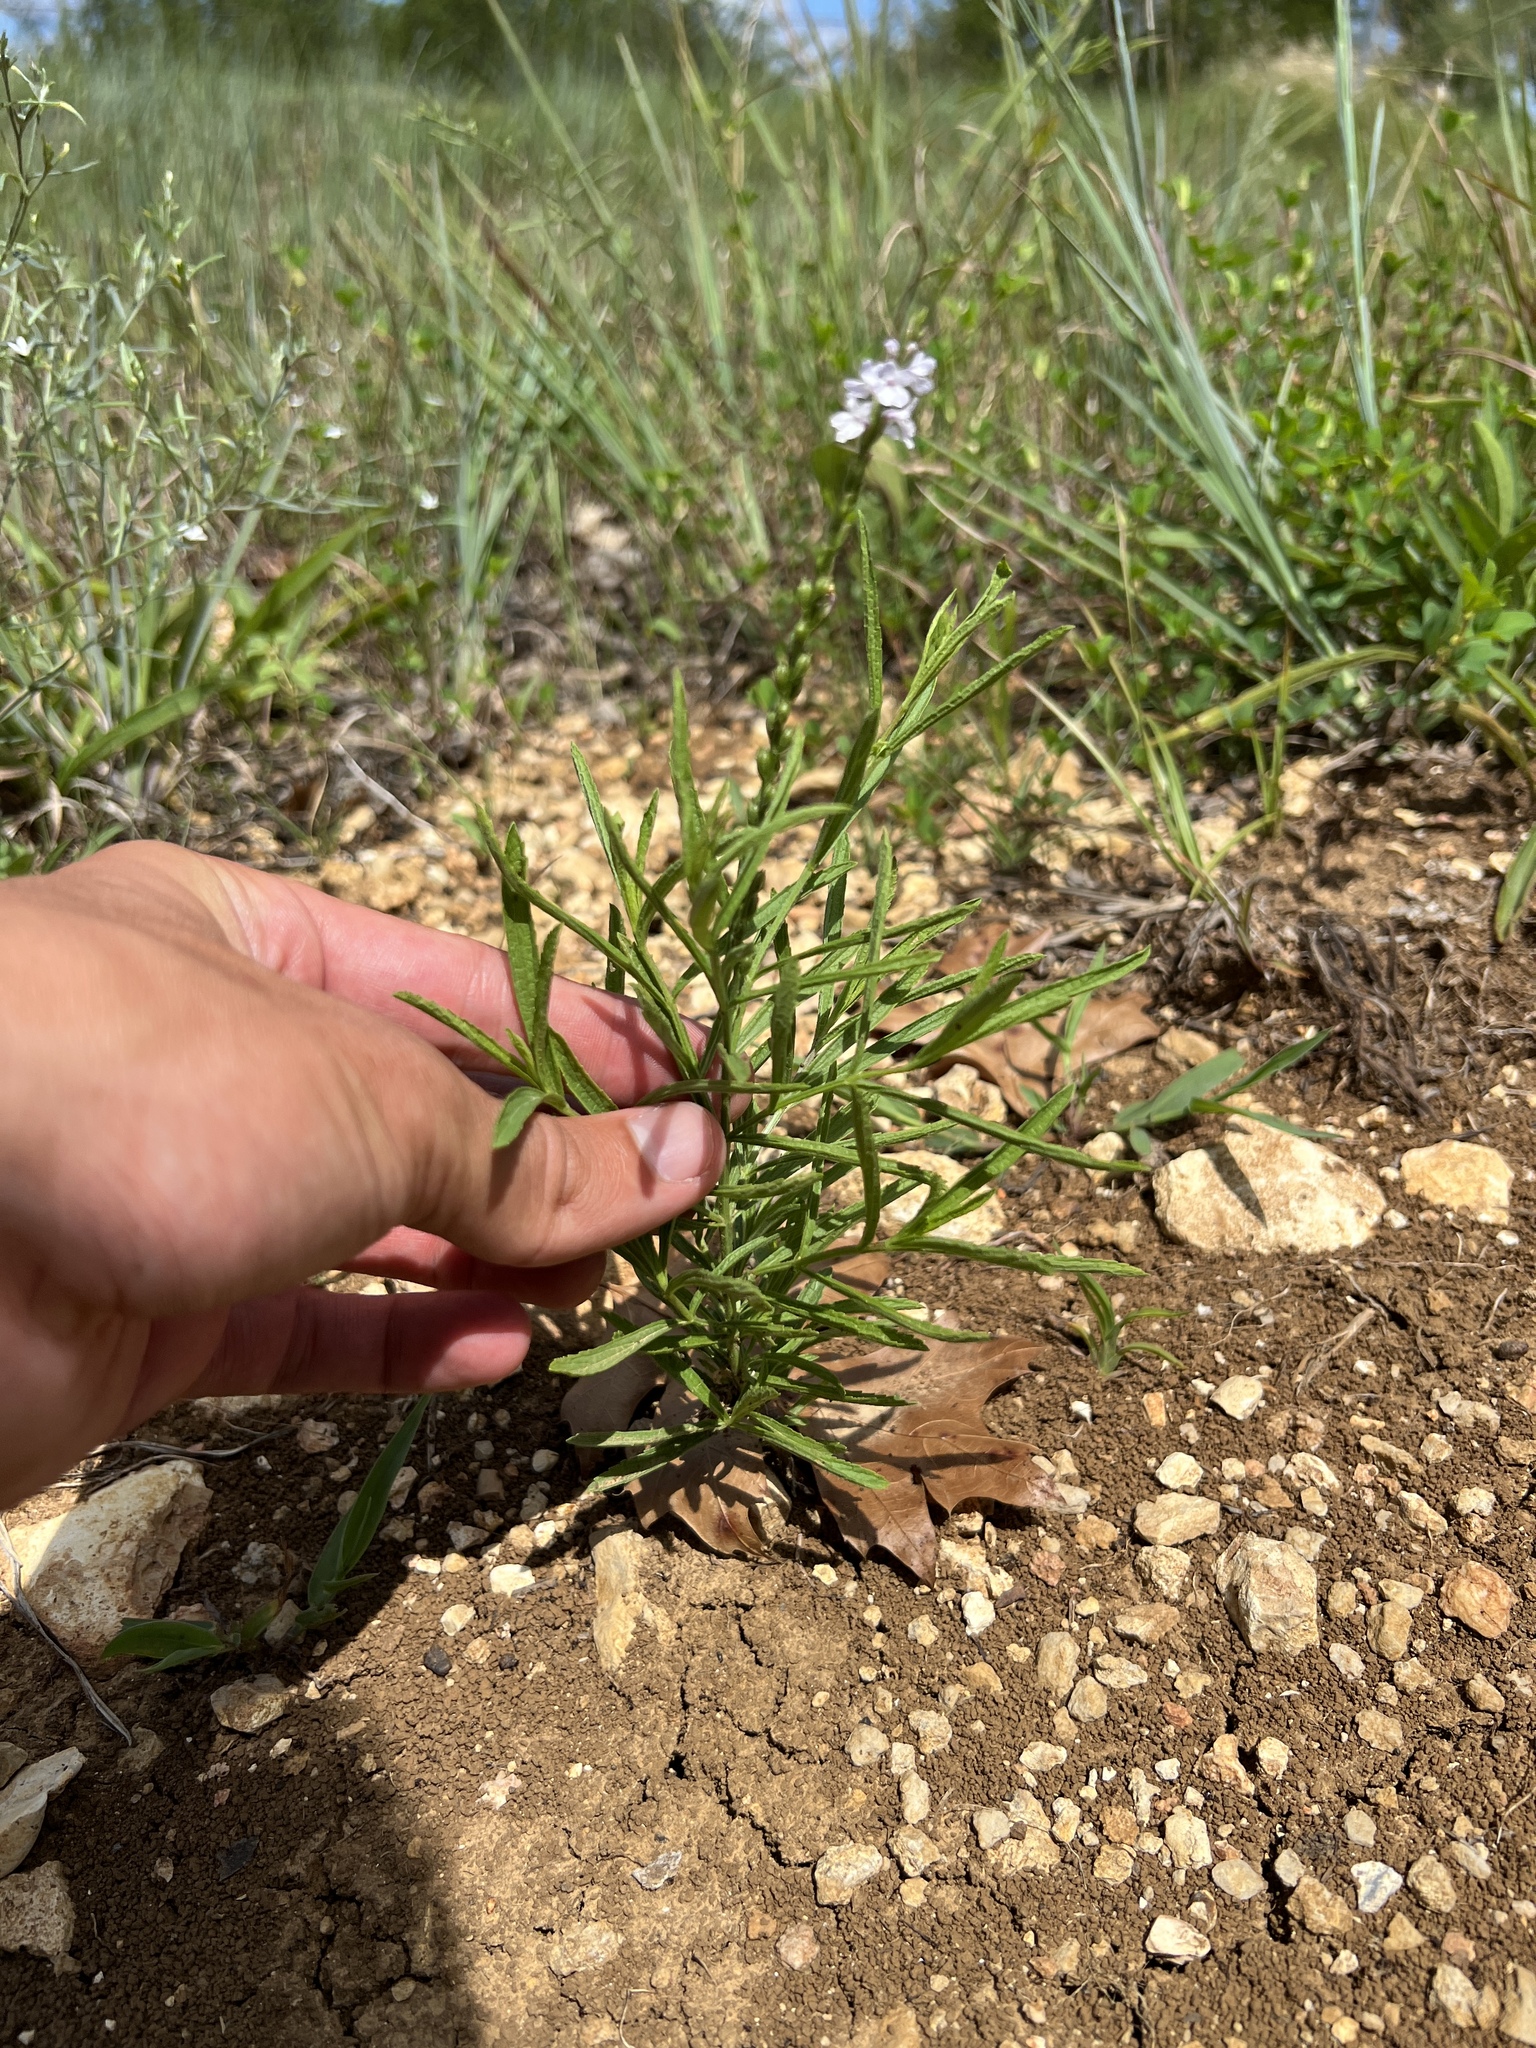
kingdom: Plantae
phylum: Tracheophyta
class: Magnoliopsida
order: Lamiales
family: Verbenaceae
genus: Verbena
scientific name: Verbena simplex
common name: Narrow-leaf vervain
